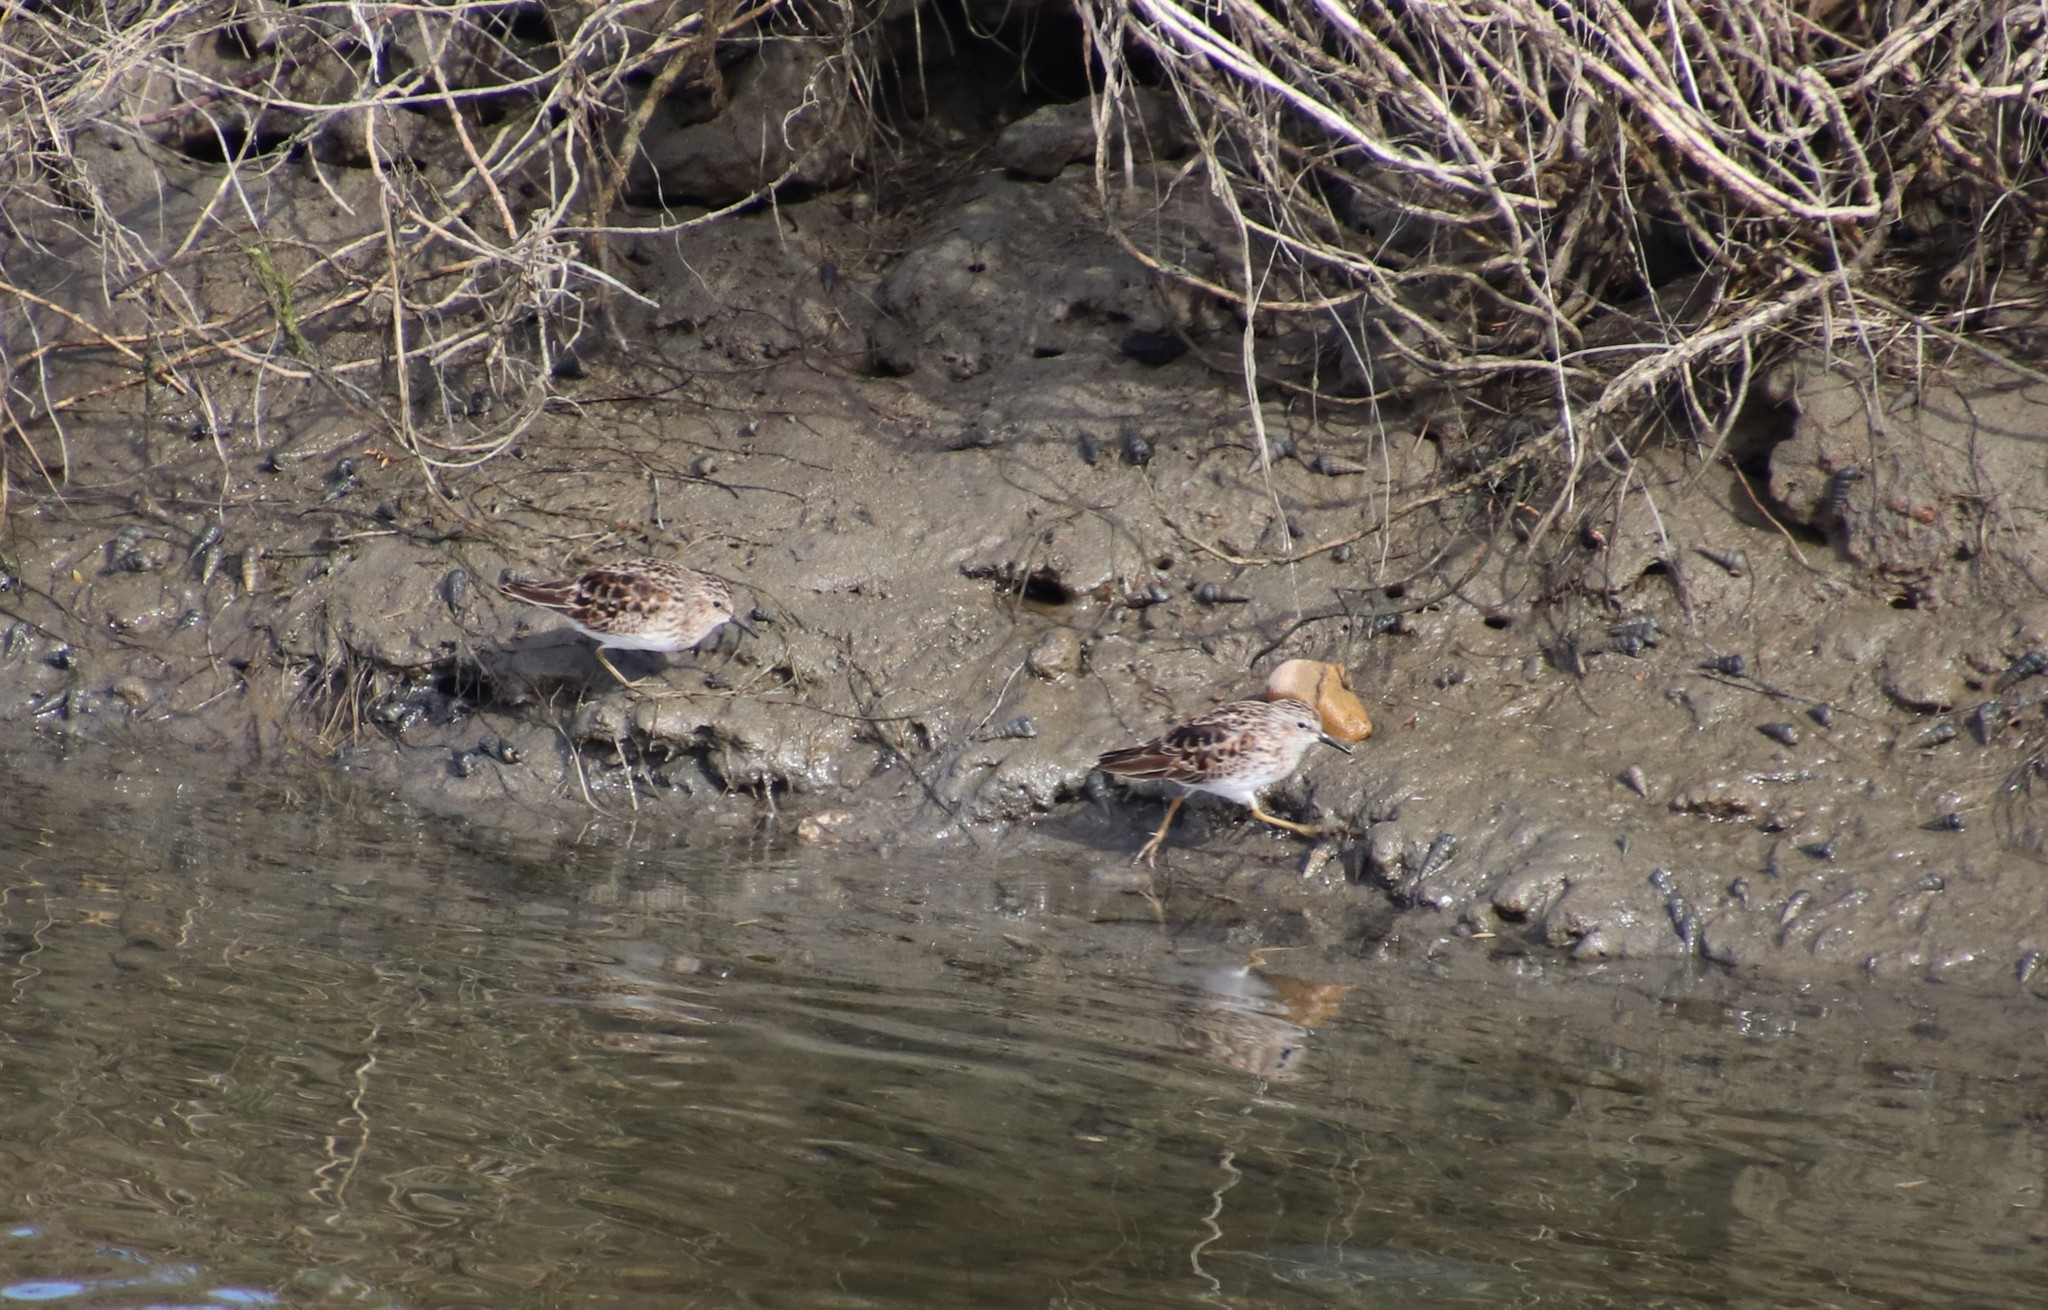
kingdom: Animalia
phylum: Chordata
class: Aves
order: Charadriiformes
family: Scolopacidae
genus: Calidris
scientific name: Calidris minutilla
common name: Least sandpiper
